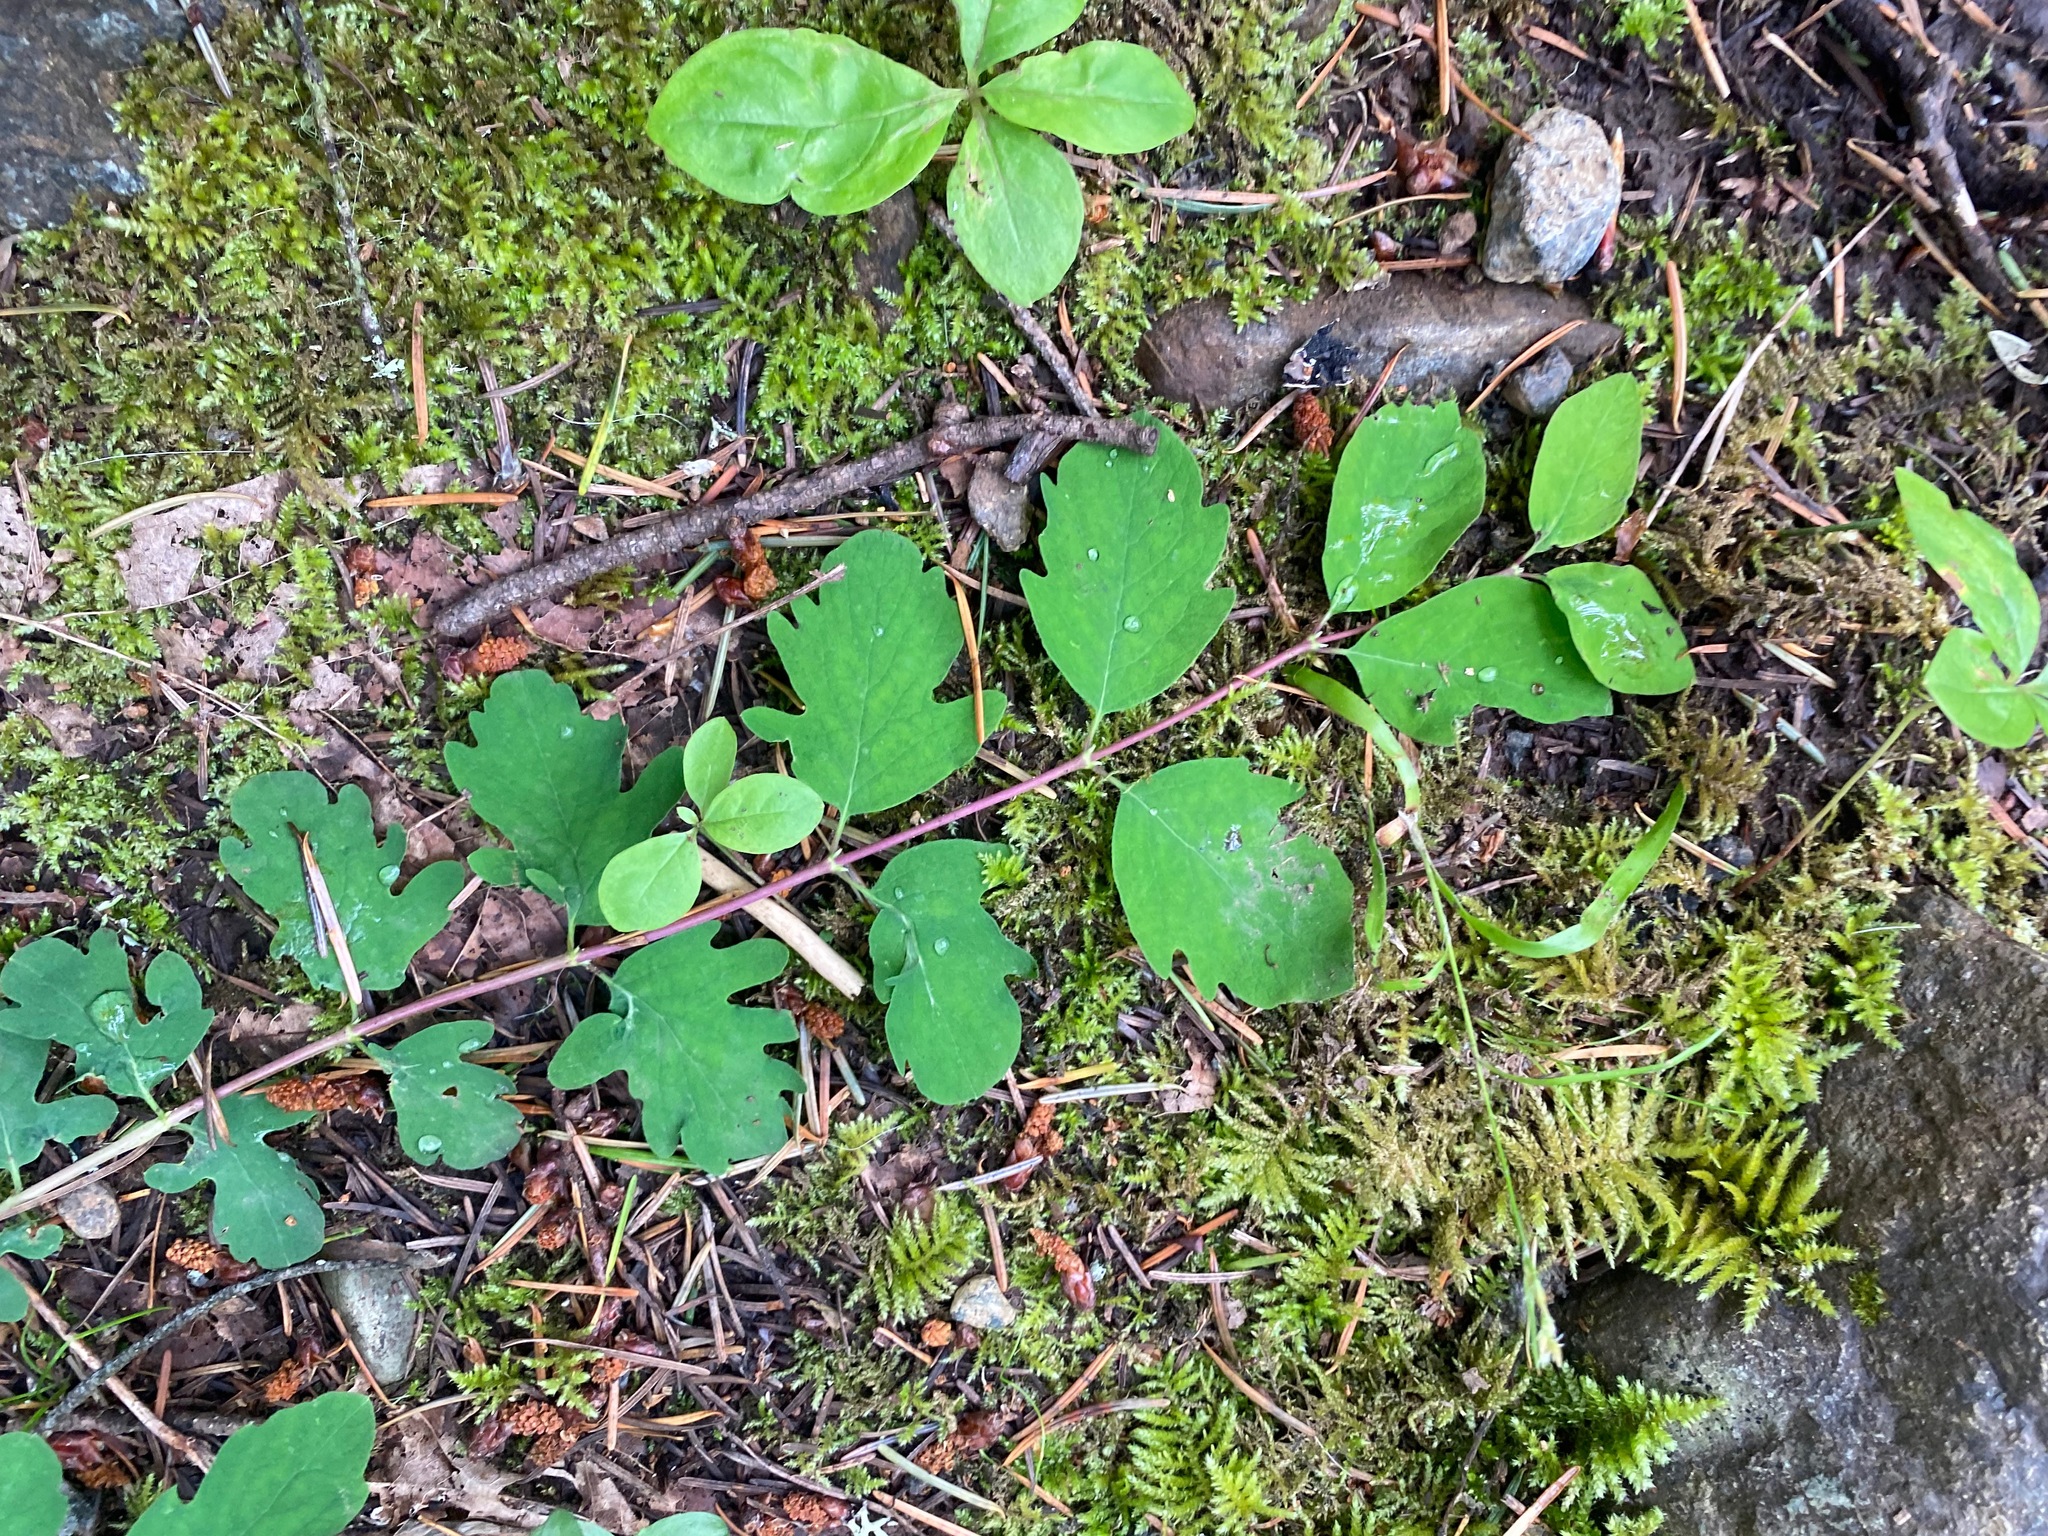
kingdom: Plantae
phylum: Tracheophyta
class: Magnoliopsida
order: Dipsacales
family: Caprifoliaceae
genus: Symphoricarpos
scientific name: Symphoricarpos mollis
